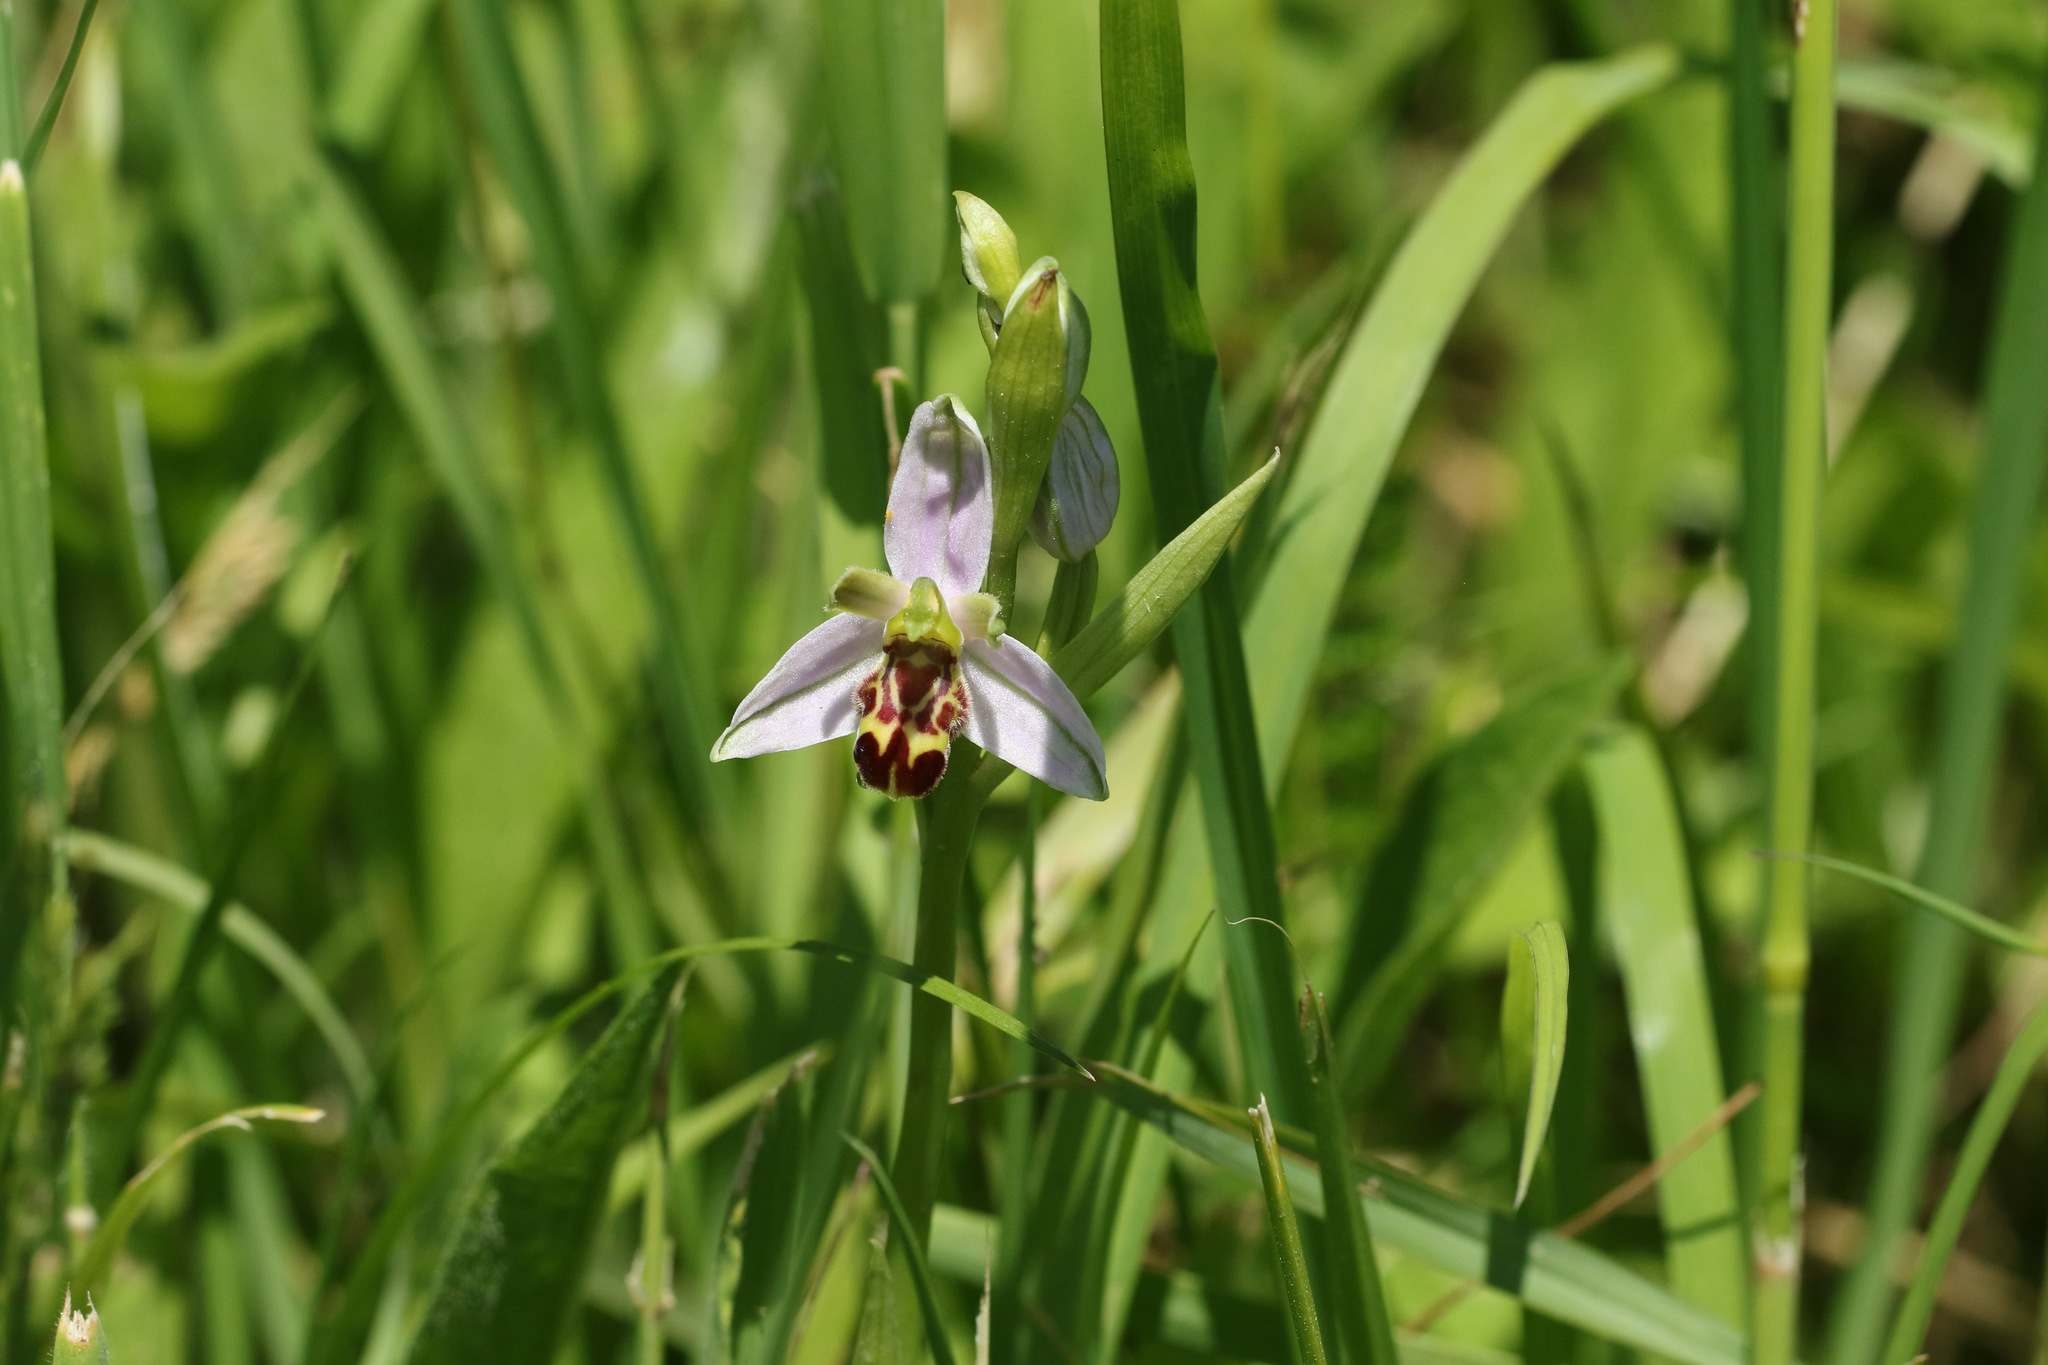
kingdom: Plantae
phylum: Tracheophyta
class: Liliopsida
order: Asparagales
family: Orchidaceae
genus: Ophrys
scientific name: Ophrys apifera
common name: Bee orchid
